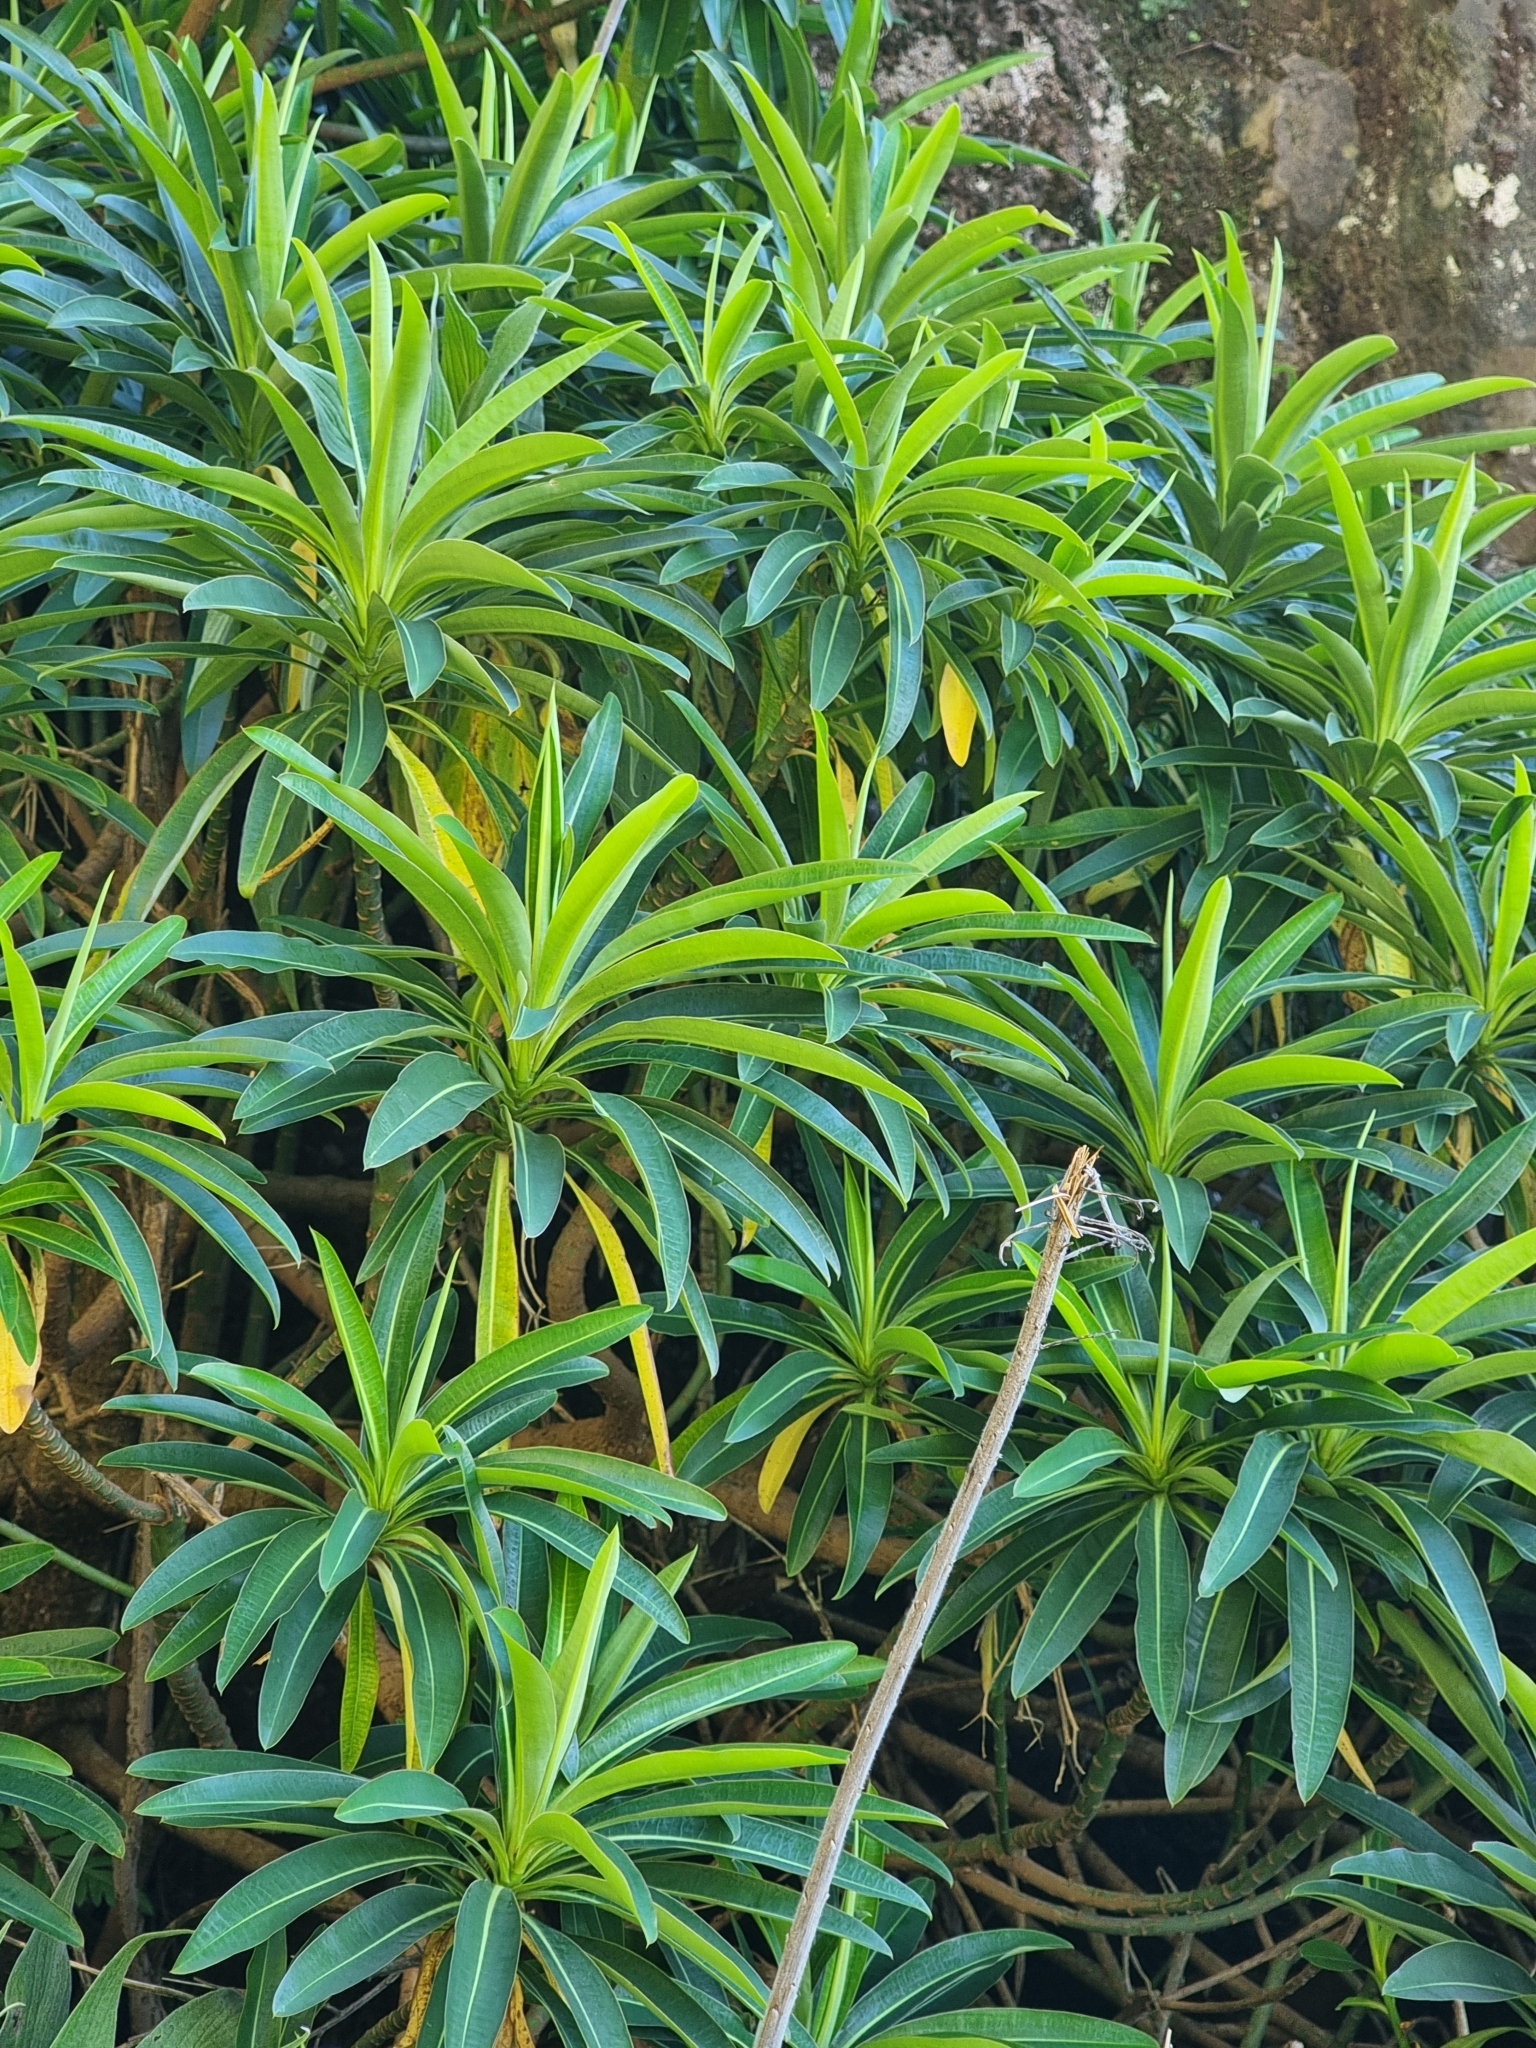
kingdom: Plantae
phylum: Tracheophyta
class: Magnoliopsida
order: Malpighiales
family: Euphorbiaceae
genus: Euphorbia
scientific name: Euphorbia mellifera
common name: Canary spurge
